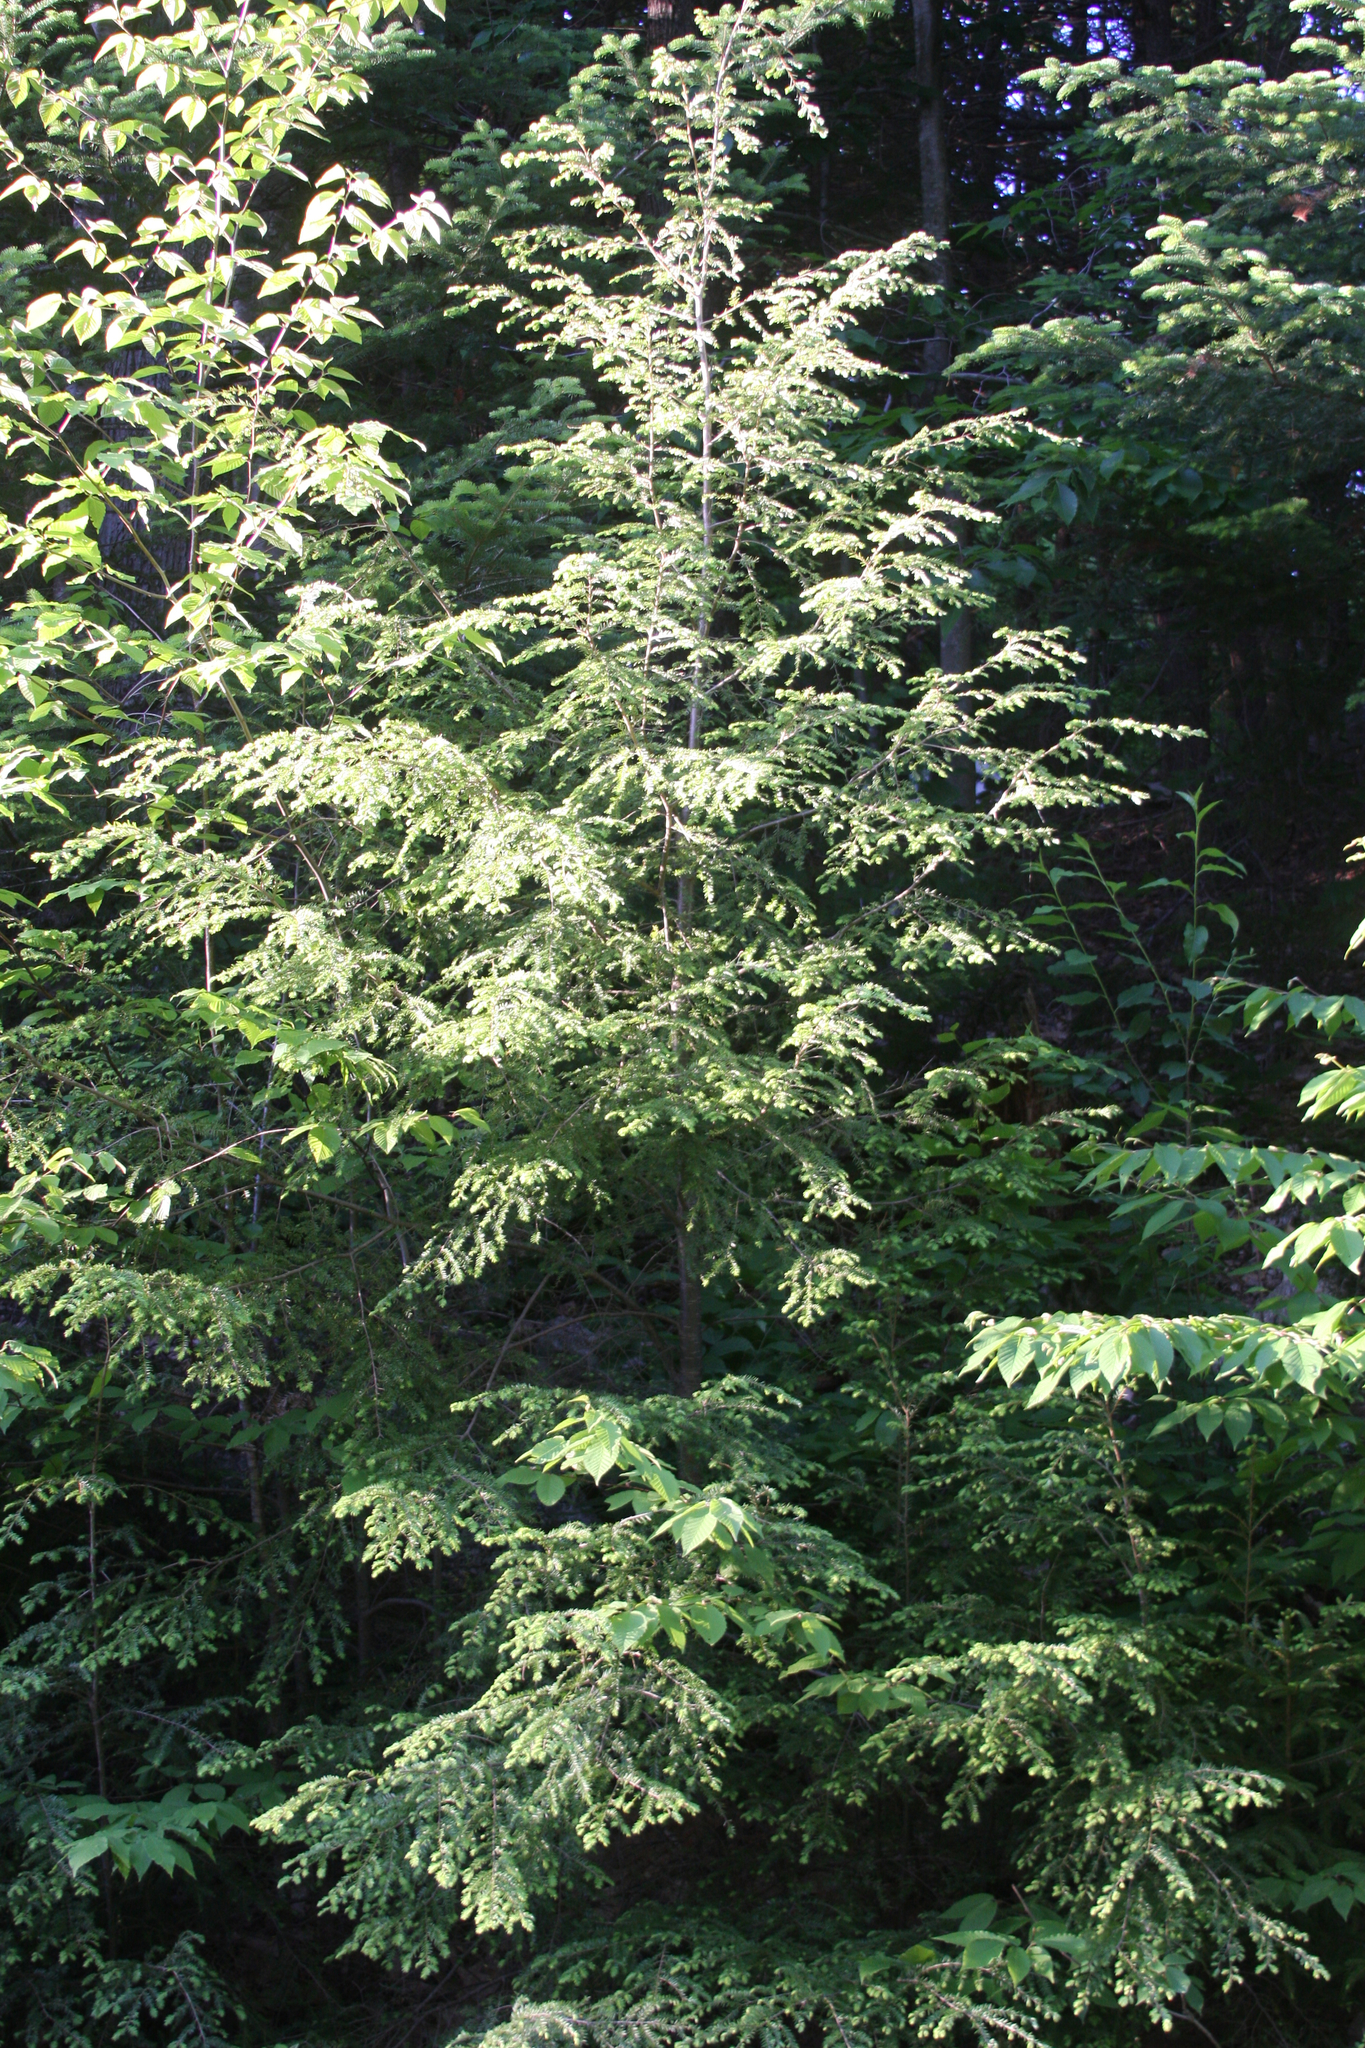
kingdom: Plantae
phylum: Tracheophyta
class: Pinopsida
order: Pinales
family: Pinaceae
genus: Tsuga
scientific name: Tsuga canadensis
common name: Eastern hemlock
